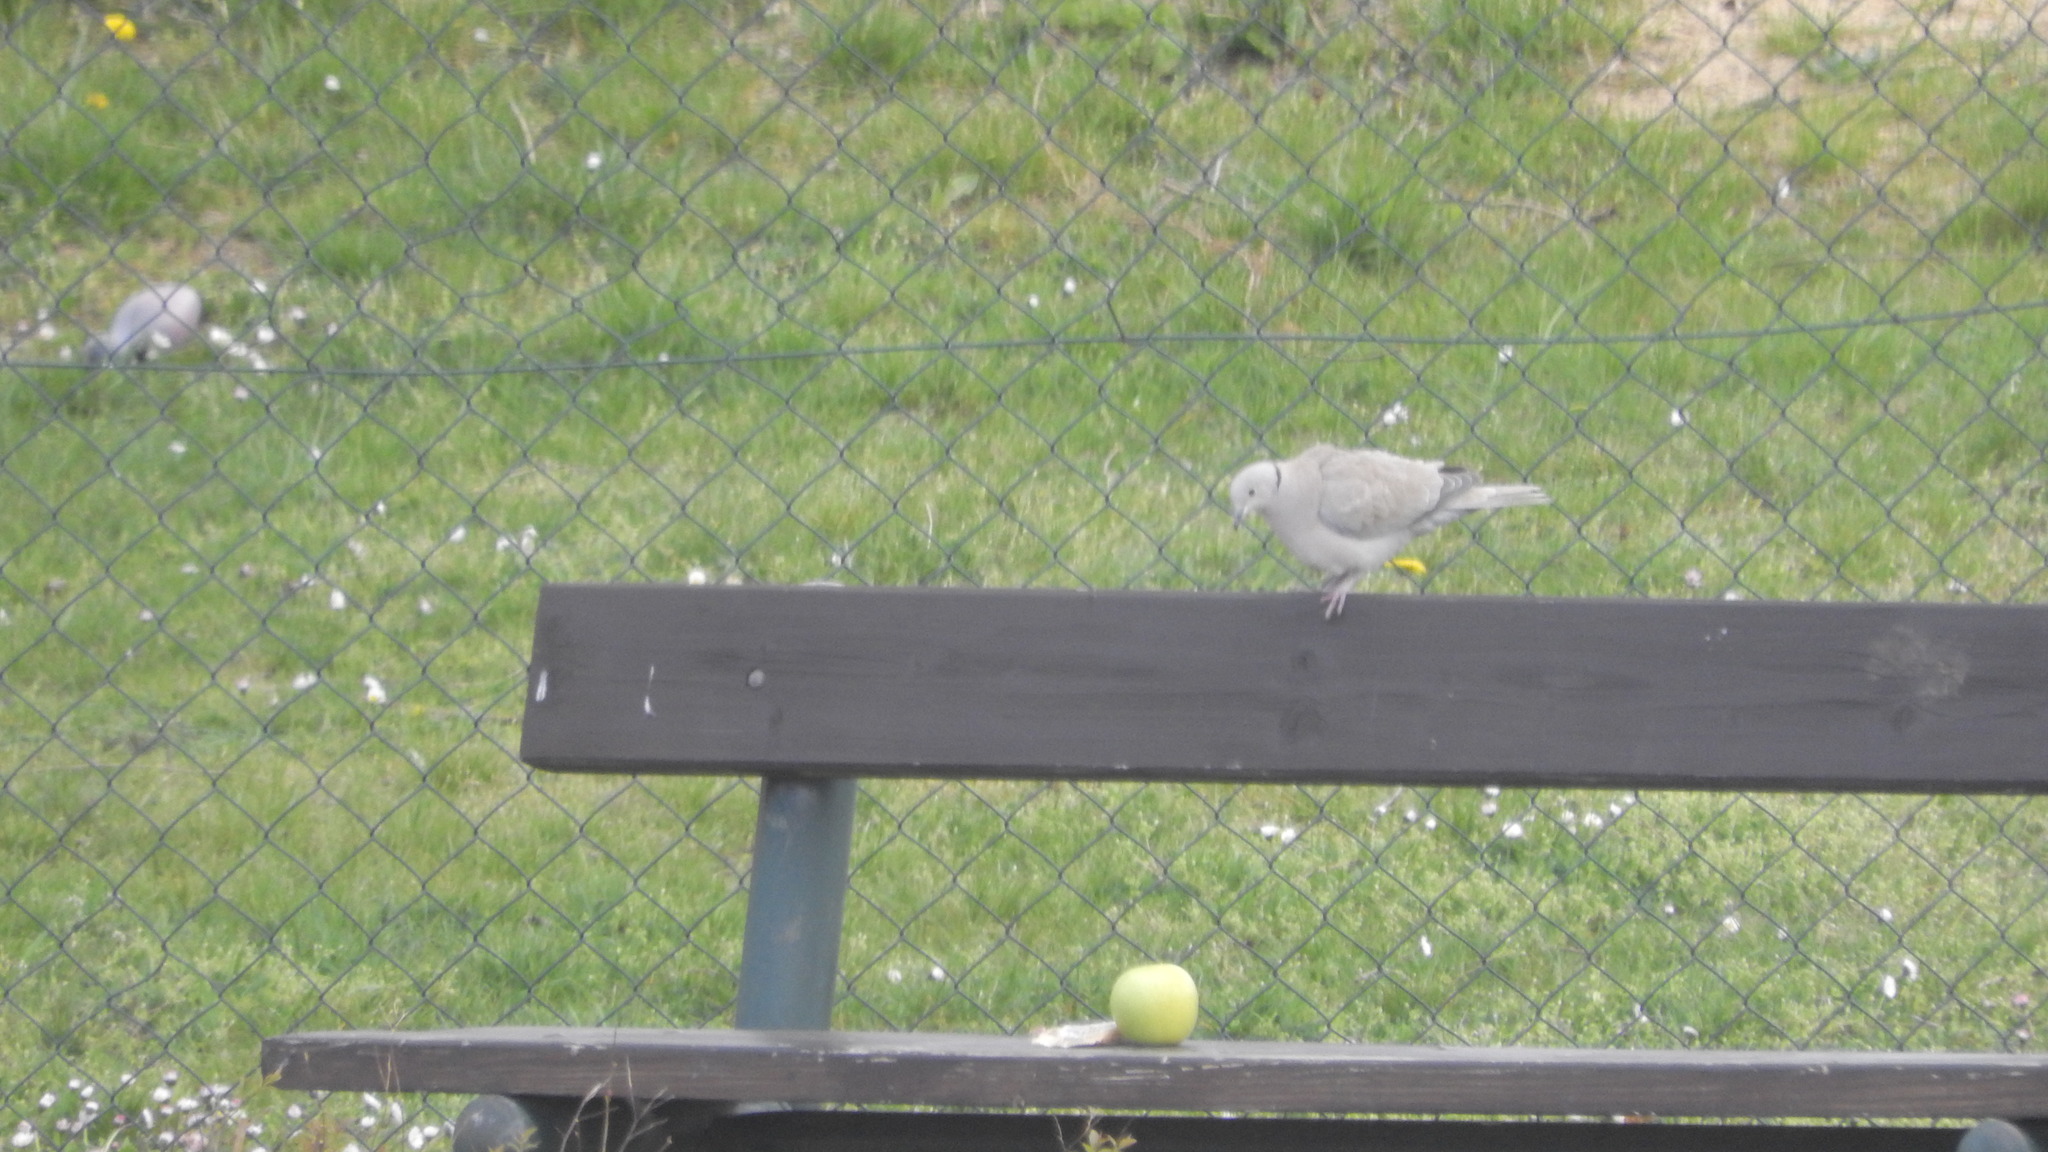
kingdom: Animalia
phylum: Chordata
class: Aves
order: Columbiformes
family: Columbidae
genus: Streptopelia
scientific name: Streptopelia decaocto
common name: Eurasian collared dove
